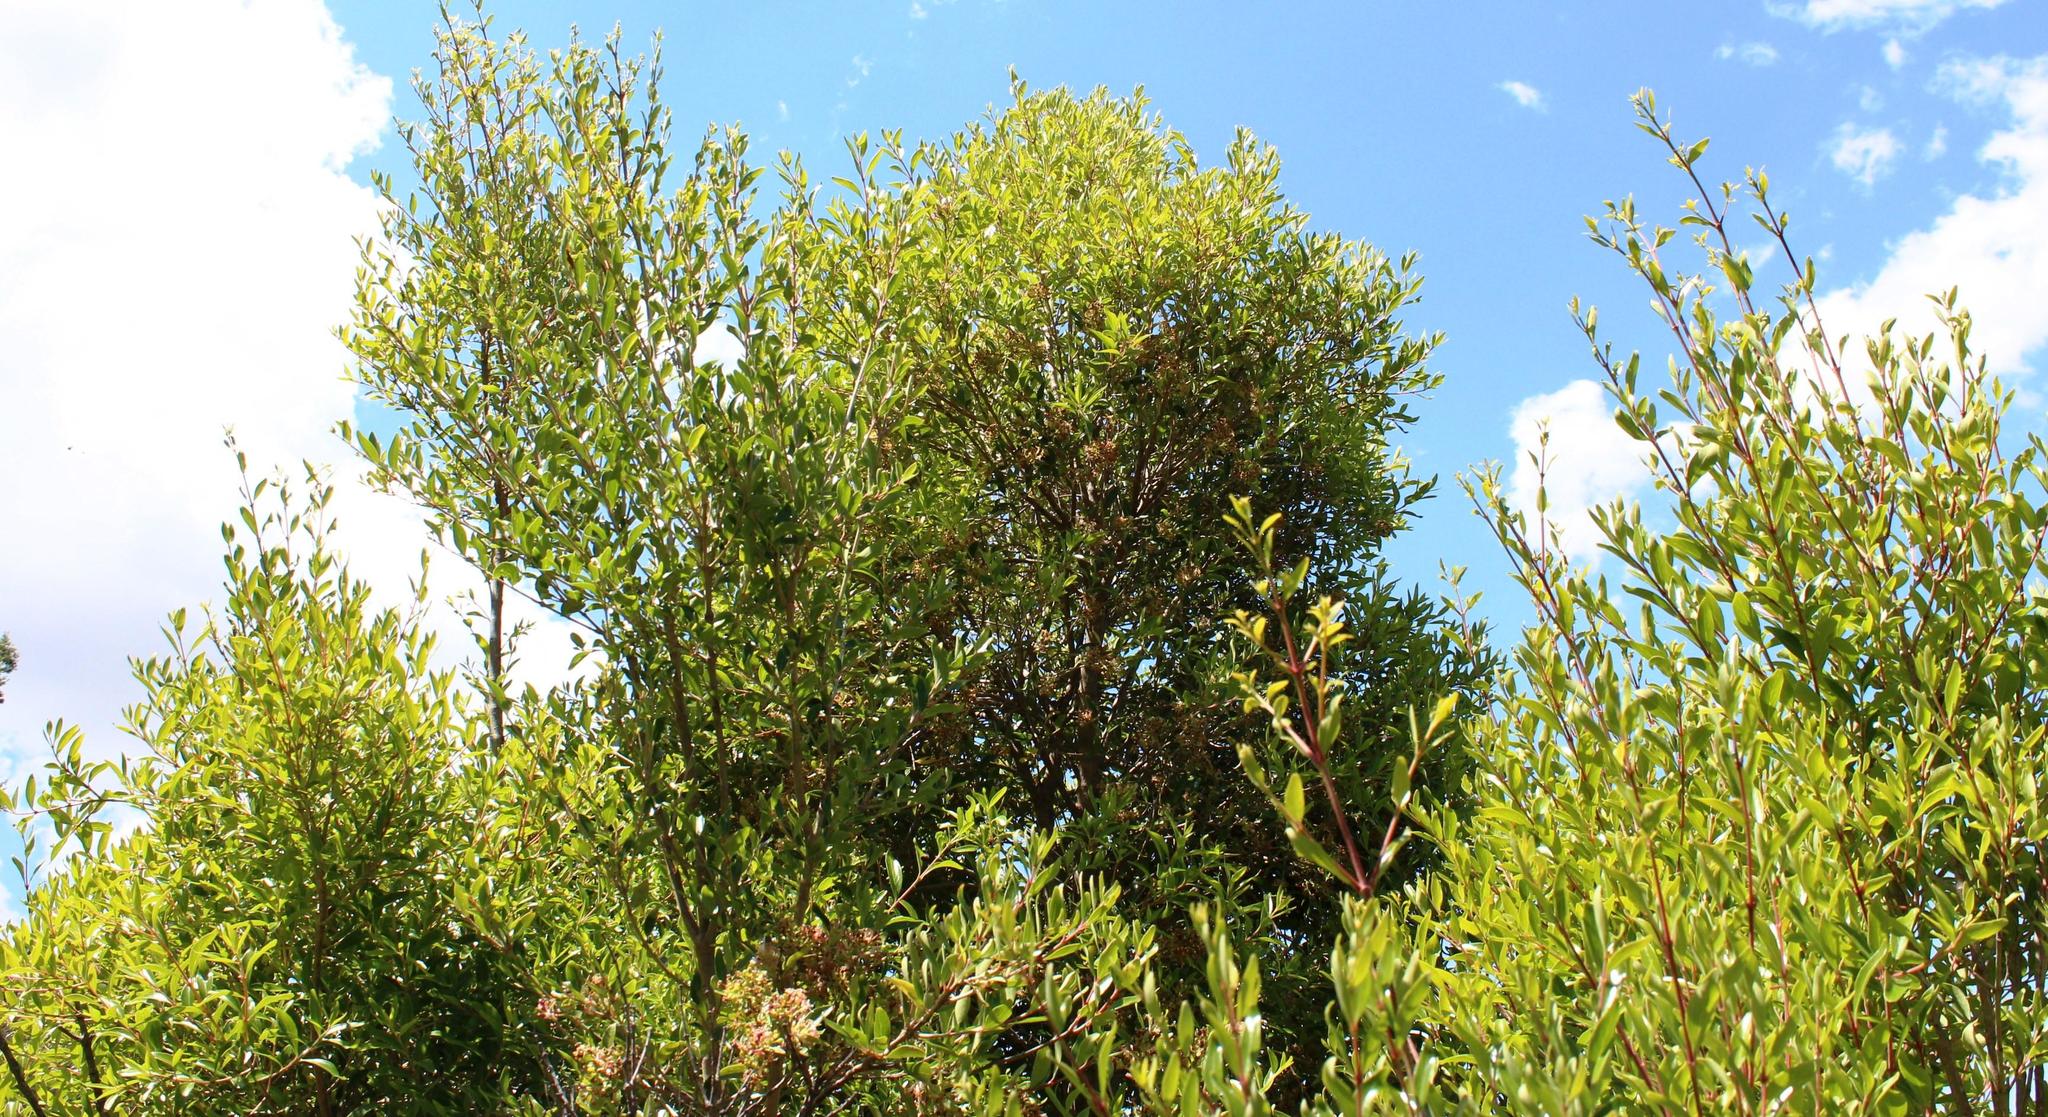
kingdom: Plantae
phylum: Tracheophyta
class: Magnoliopsida
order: Myrtales
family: Penaeaceae
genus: Olinia
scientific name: Olinia emarginata
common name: Mountain hard pear
